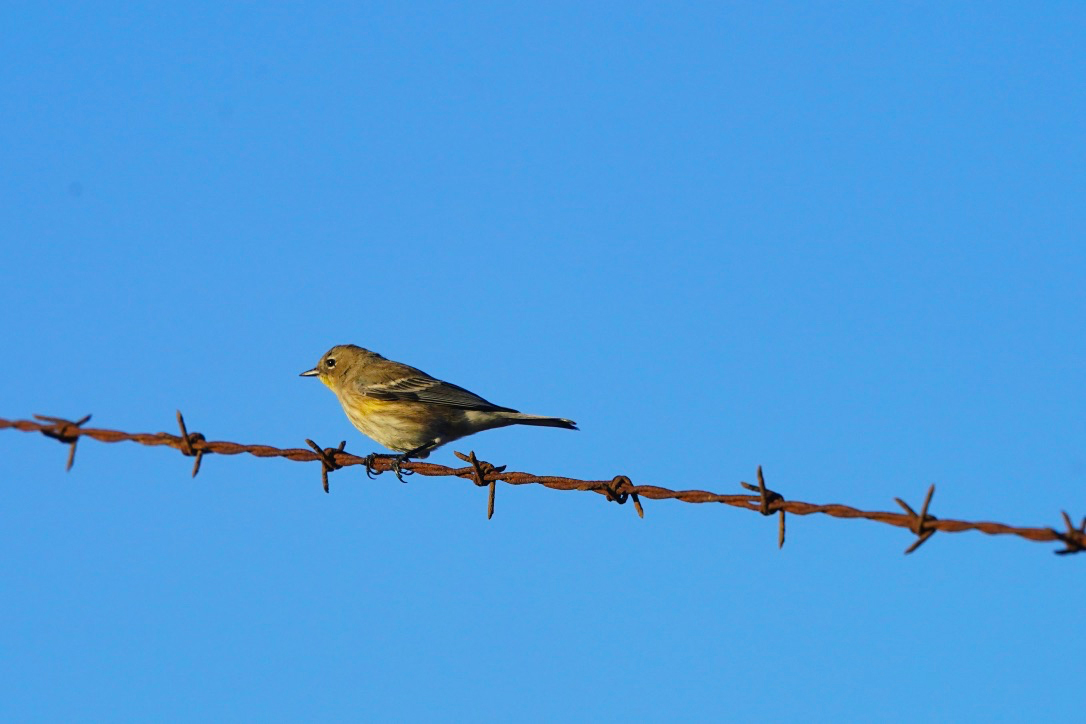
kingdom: Animalia
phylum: Chordata
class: Aves
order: Passeriformes
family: Parulidae
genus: Setophaga
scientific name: Setophaga coronata
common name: Myrtle warbler
